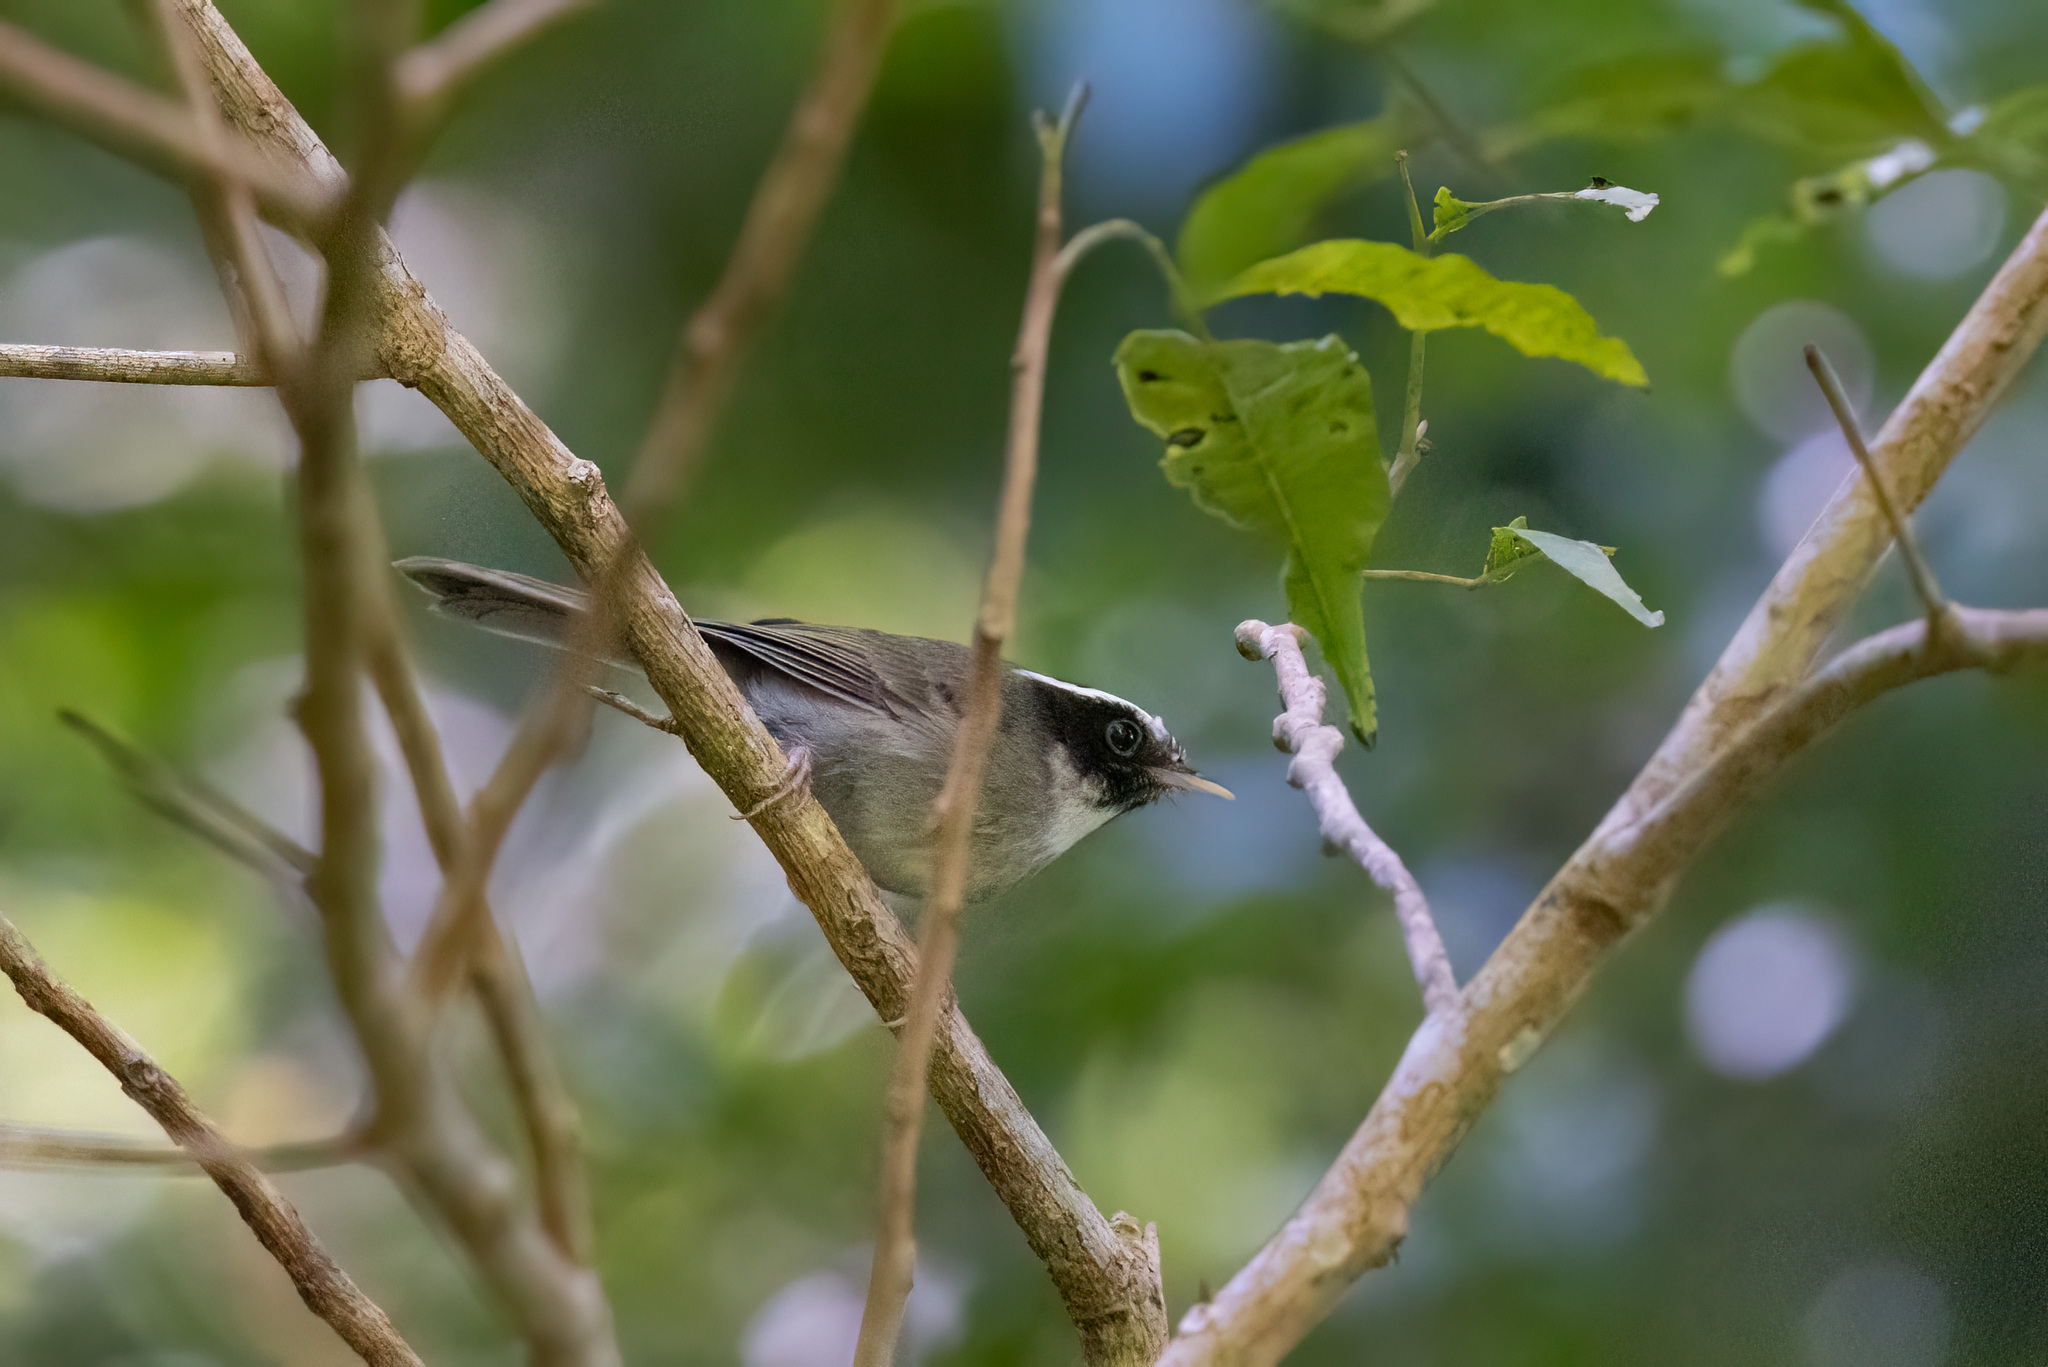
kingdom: Animalia
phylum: Chordata
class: Aves
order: Passeriformes
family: Parulidae
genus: Basileuterus
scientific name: Basileuterus melanogenys
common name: Black-cheeked warbler
